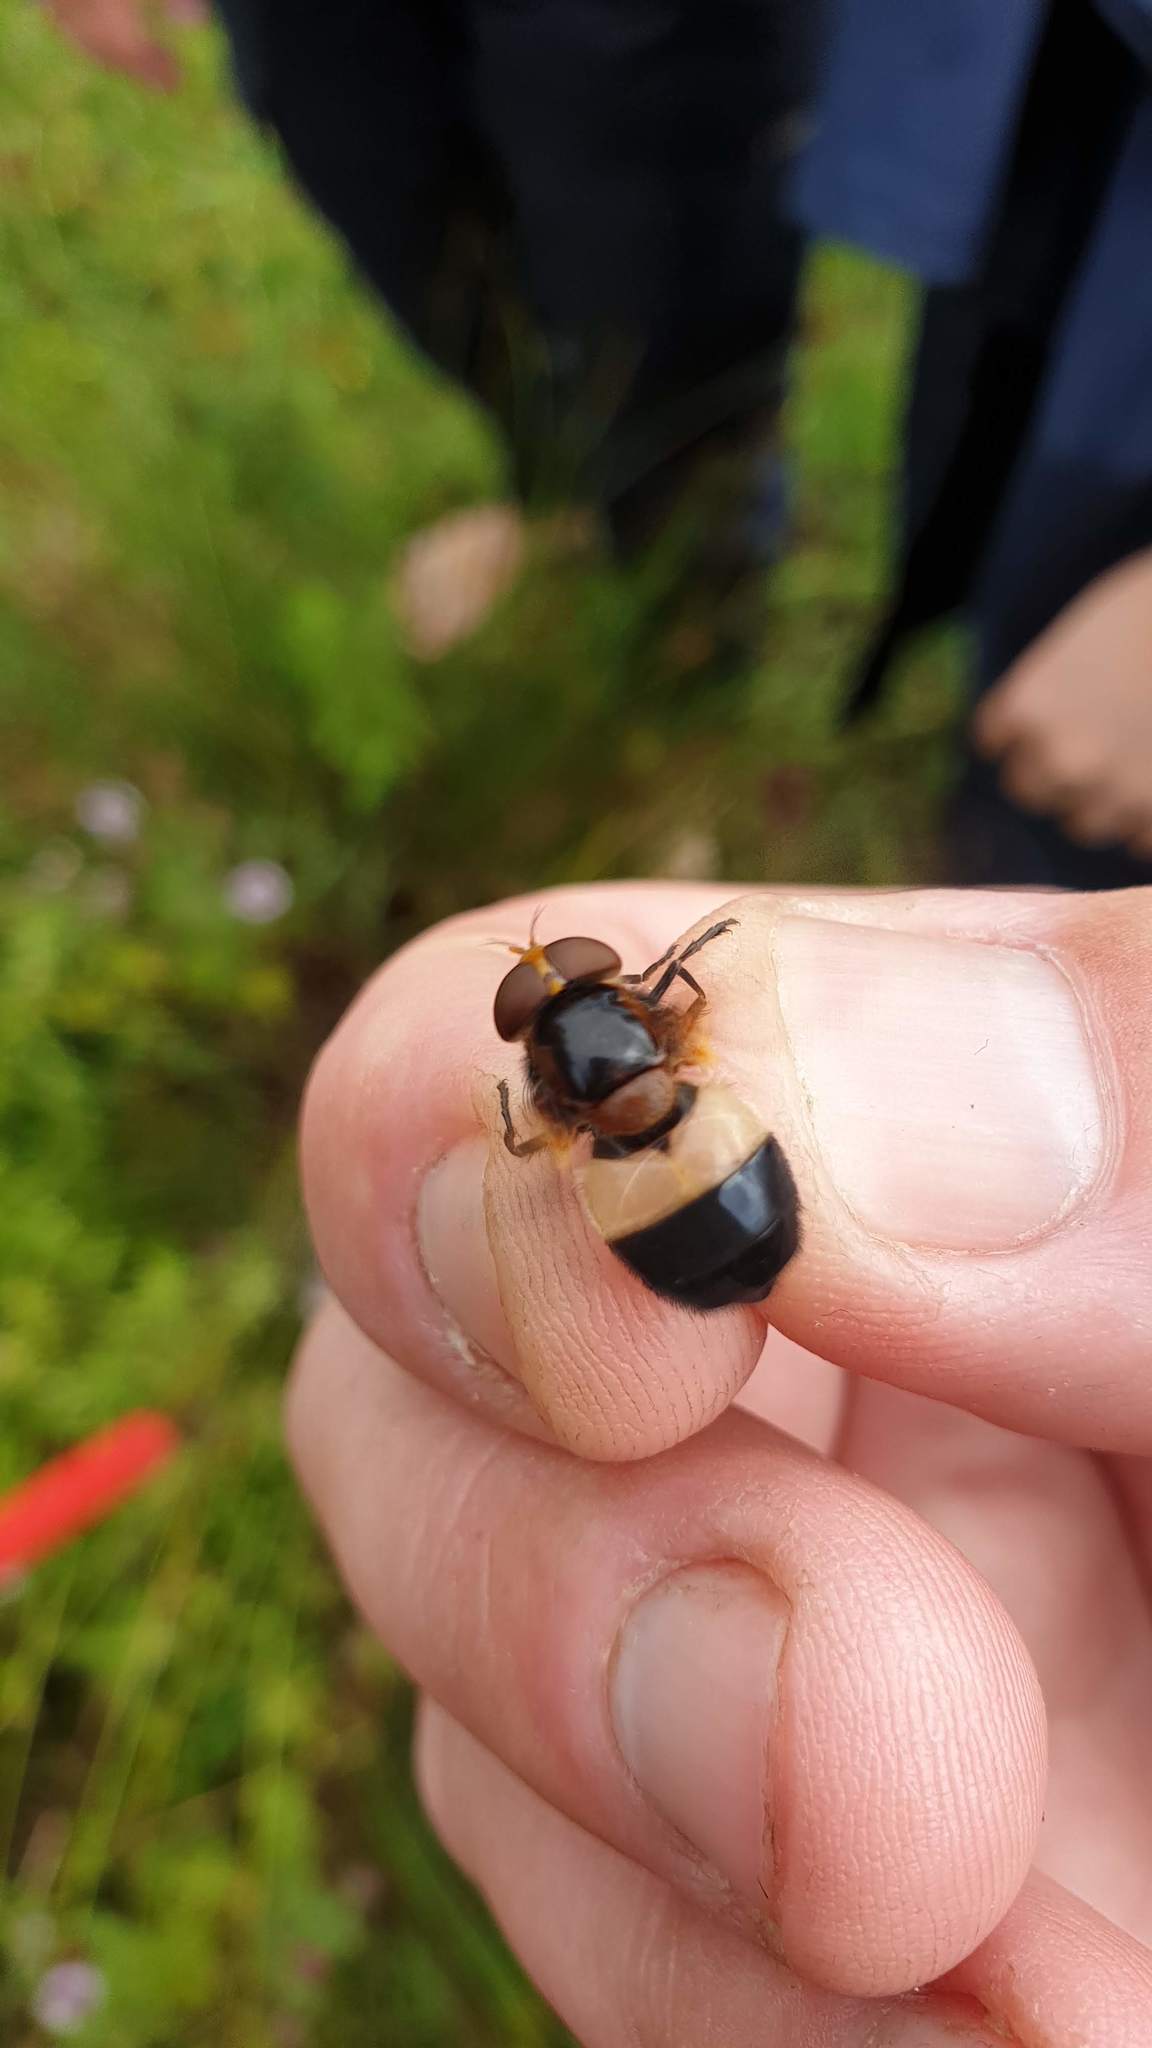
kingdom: Animalia
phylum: Arthropoda
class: Insecta
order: Diptera
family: Syrphidae
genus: Volucella
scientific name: Volucella pellucens
